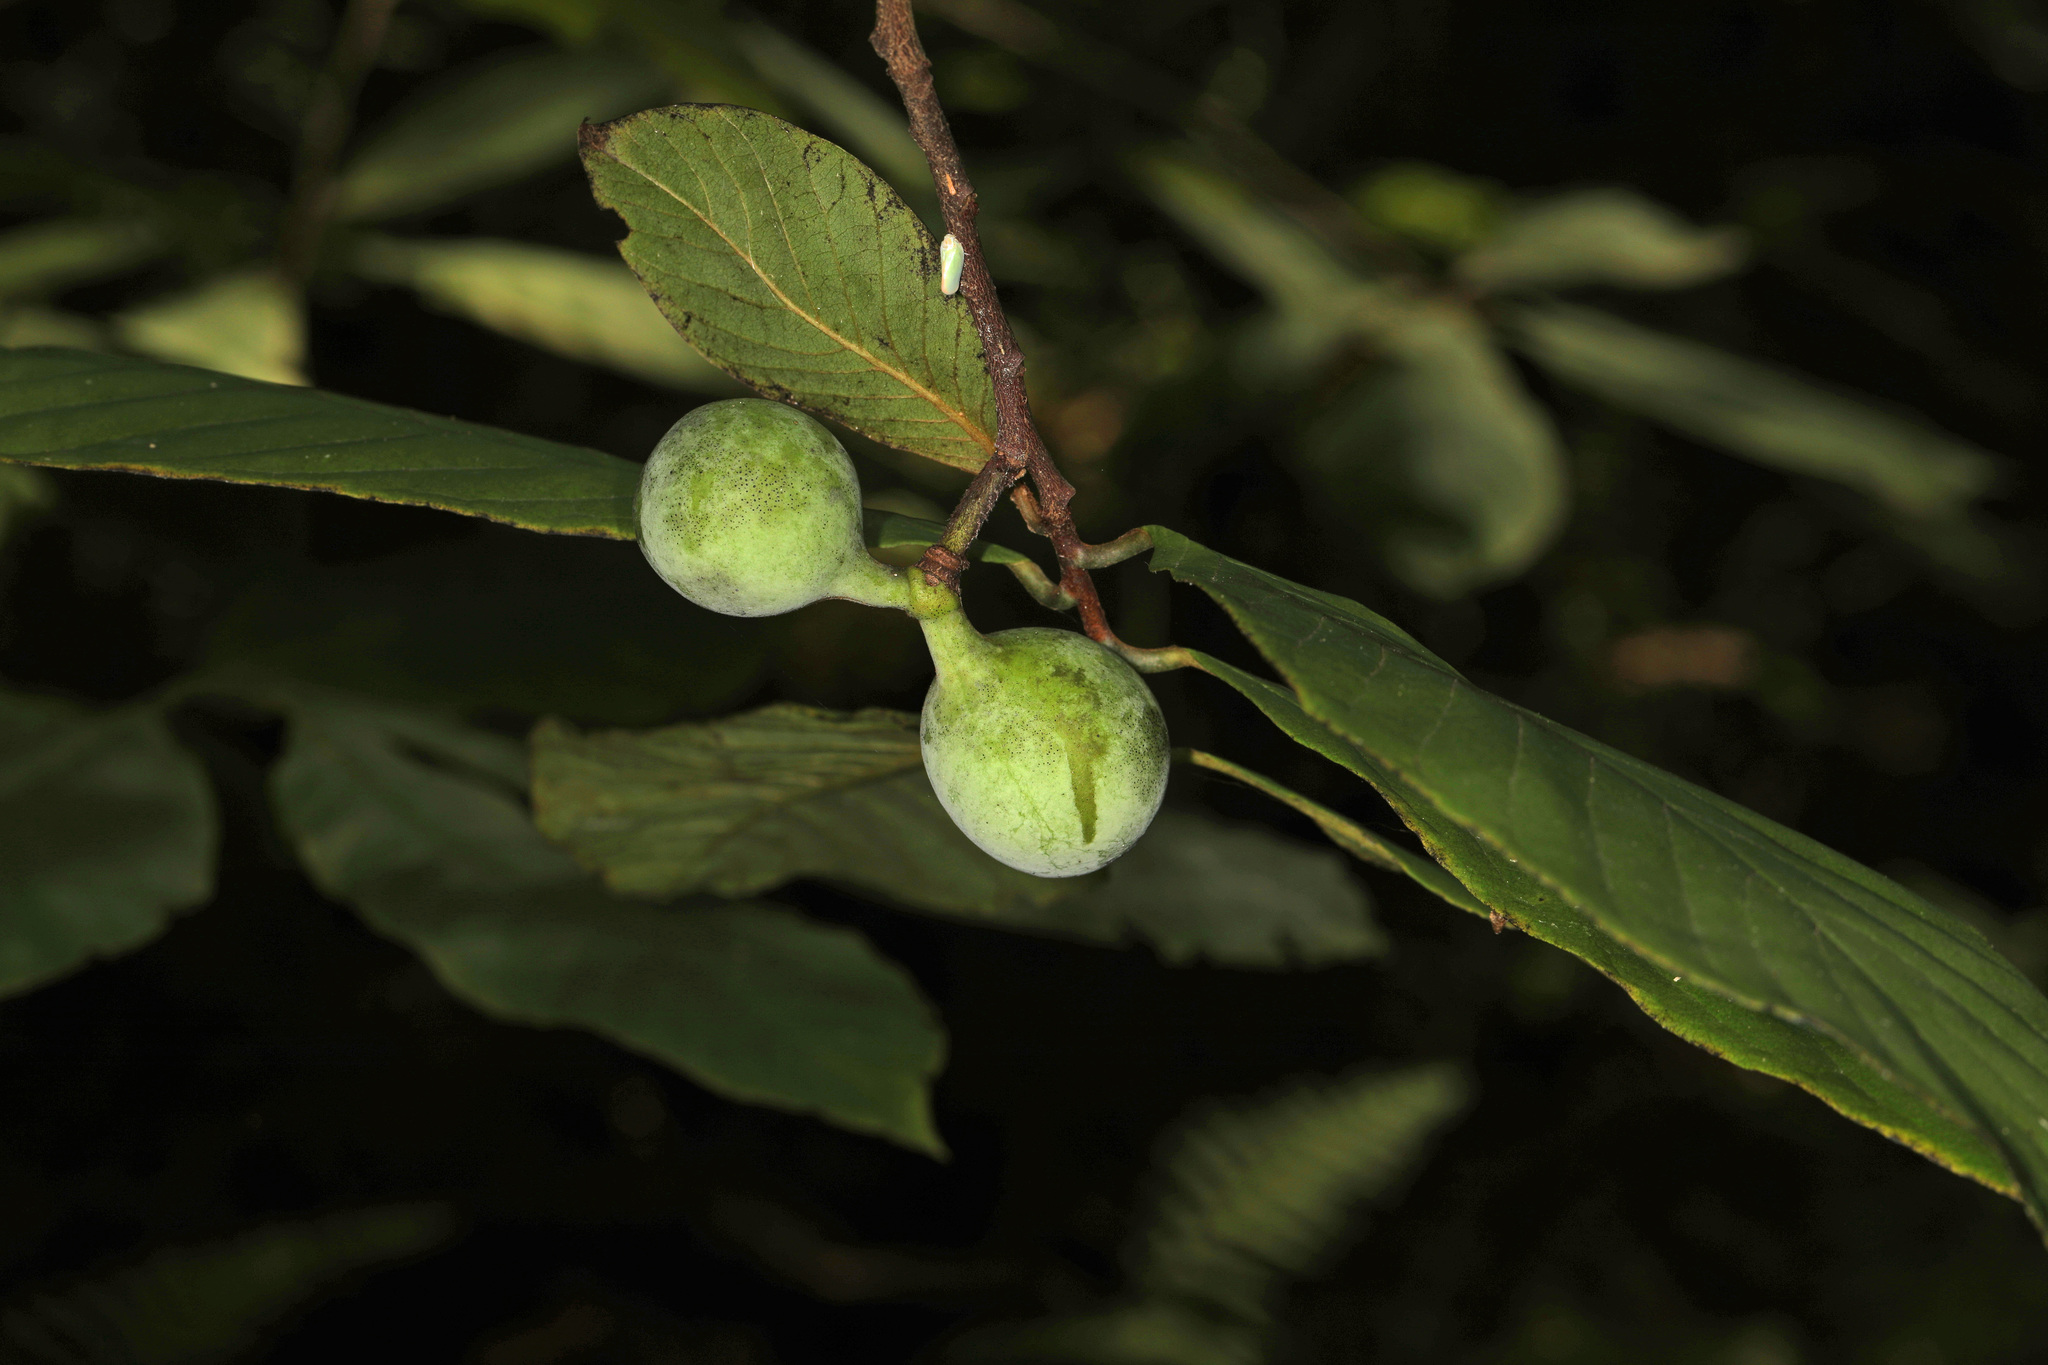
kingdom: Plantae
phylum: Tracheophyta
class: Magnoliopsida
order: Magnoliales
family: Annonaceae
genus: Asimina
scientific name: Asimina triloba
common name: Dog-banana
